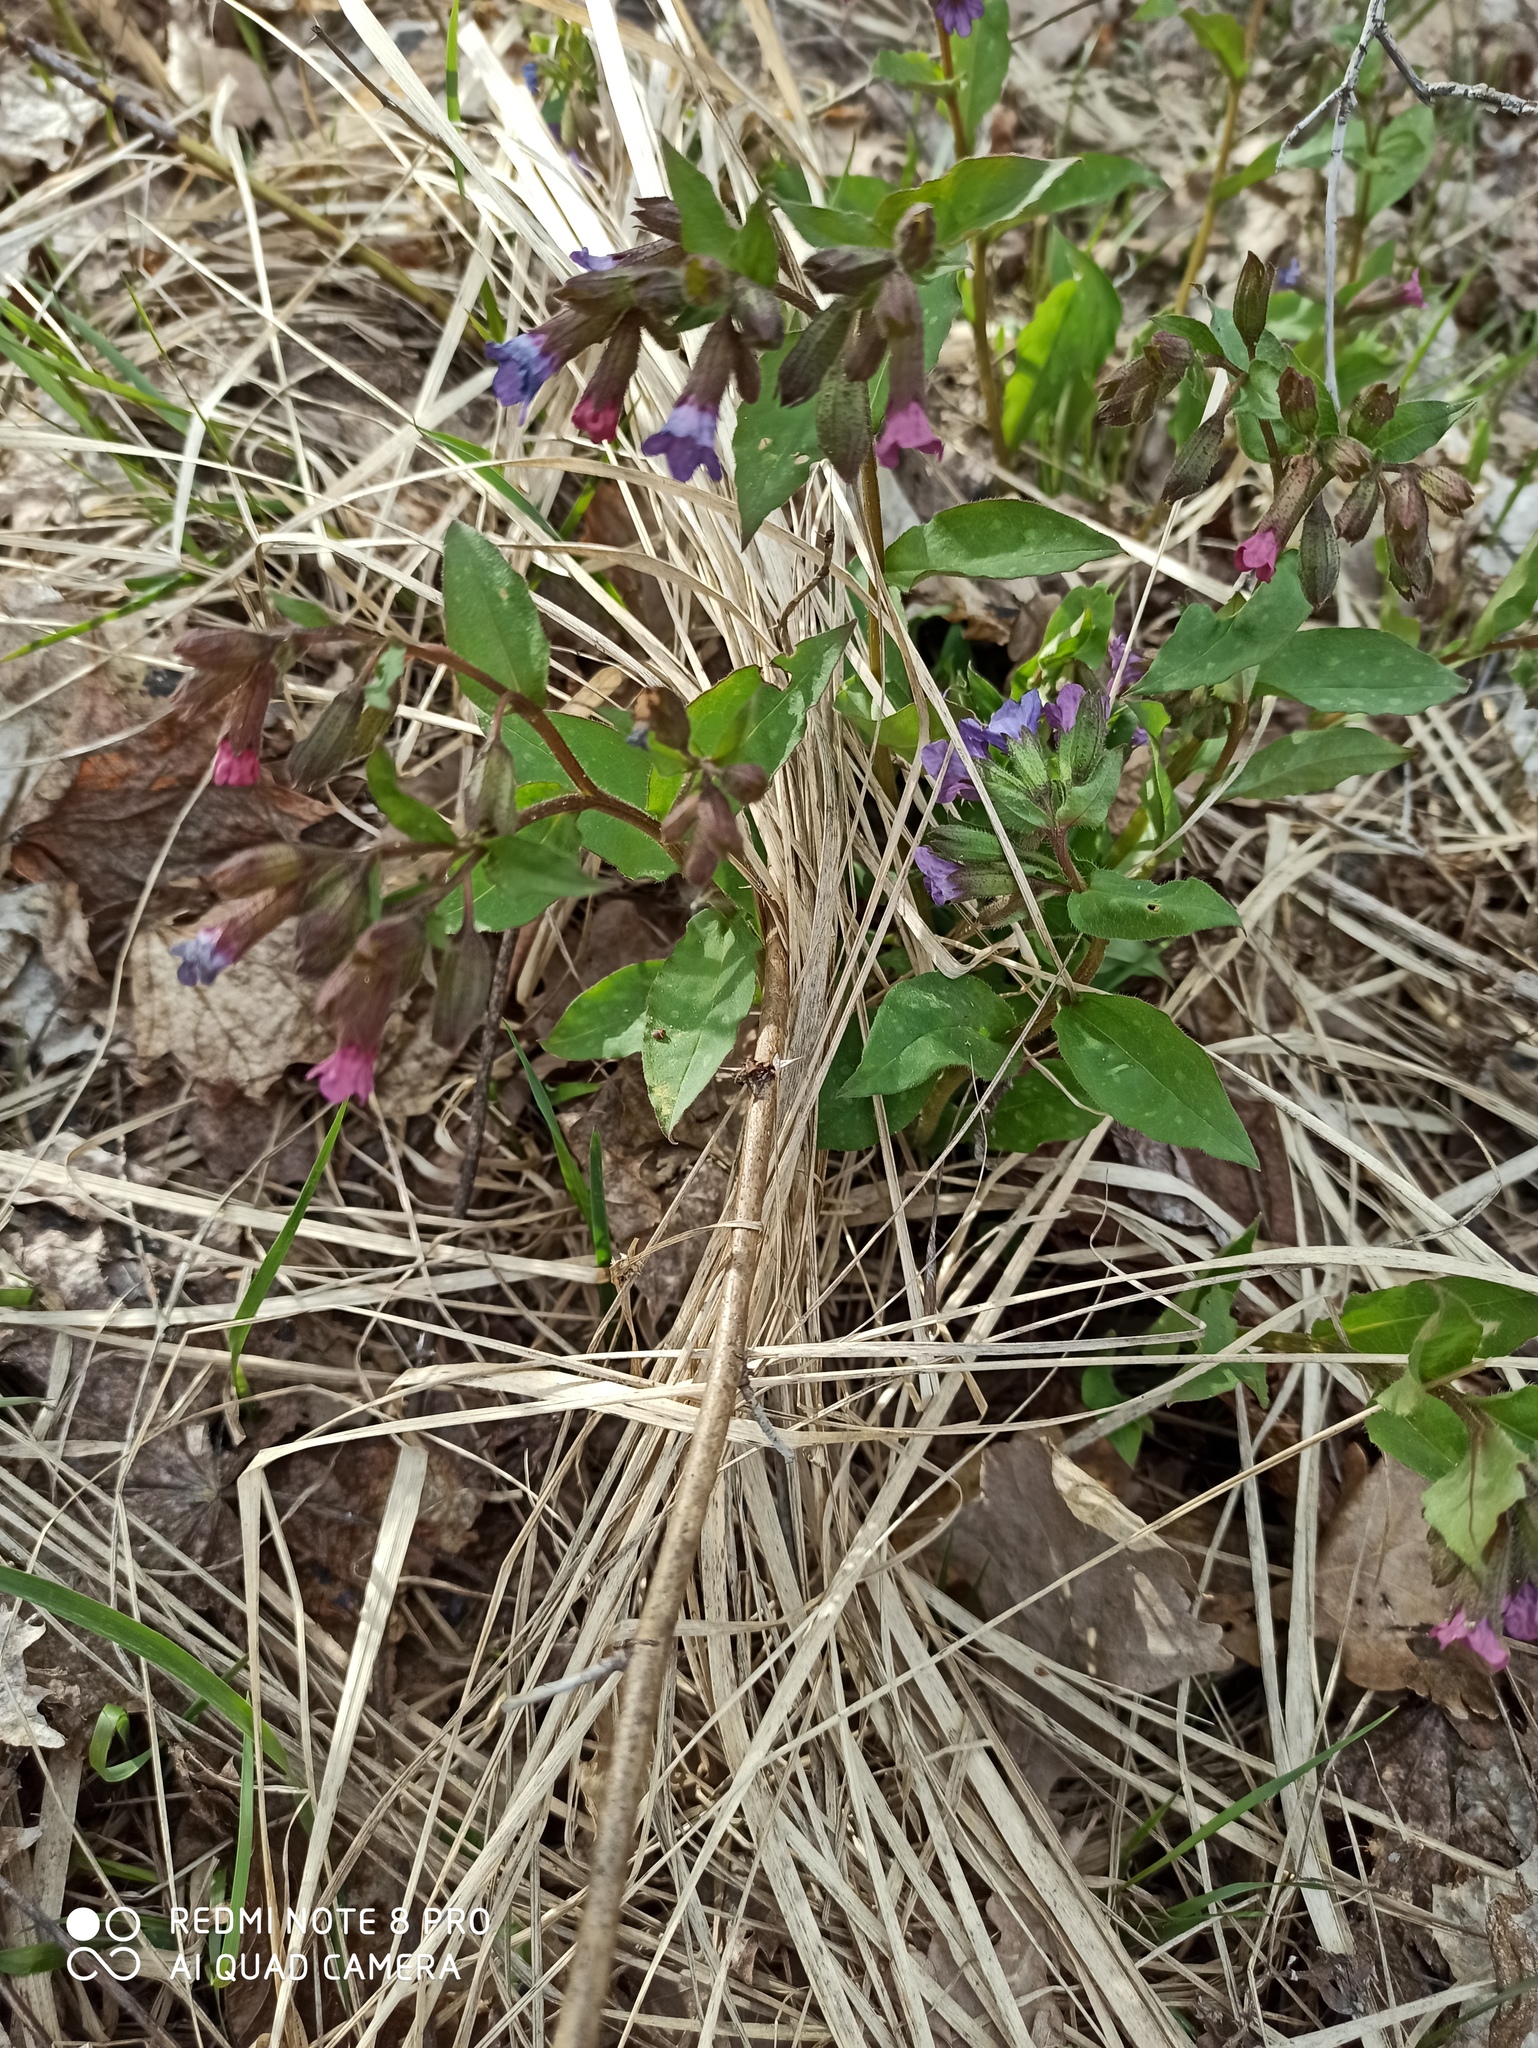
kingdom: Plantae
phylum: Tracheophyta
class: Magnoliopsida
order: Boraginales
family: Boraginaceae
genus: Pulmonaria
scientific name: Pulmonaria obscura
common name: Suffolk lungwort
